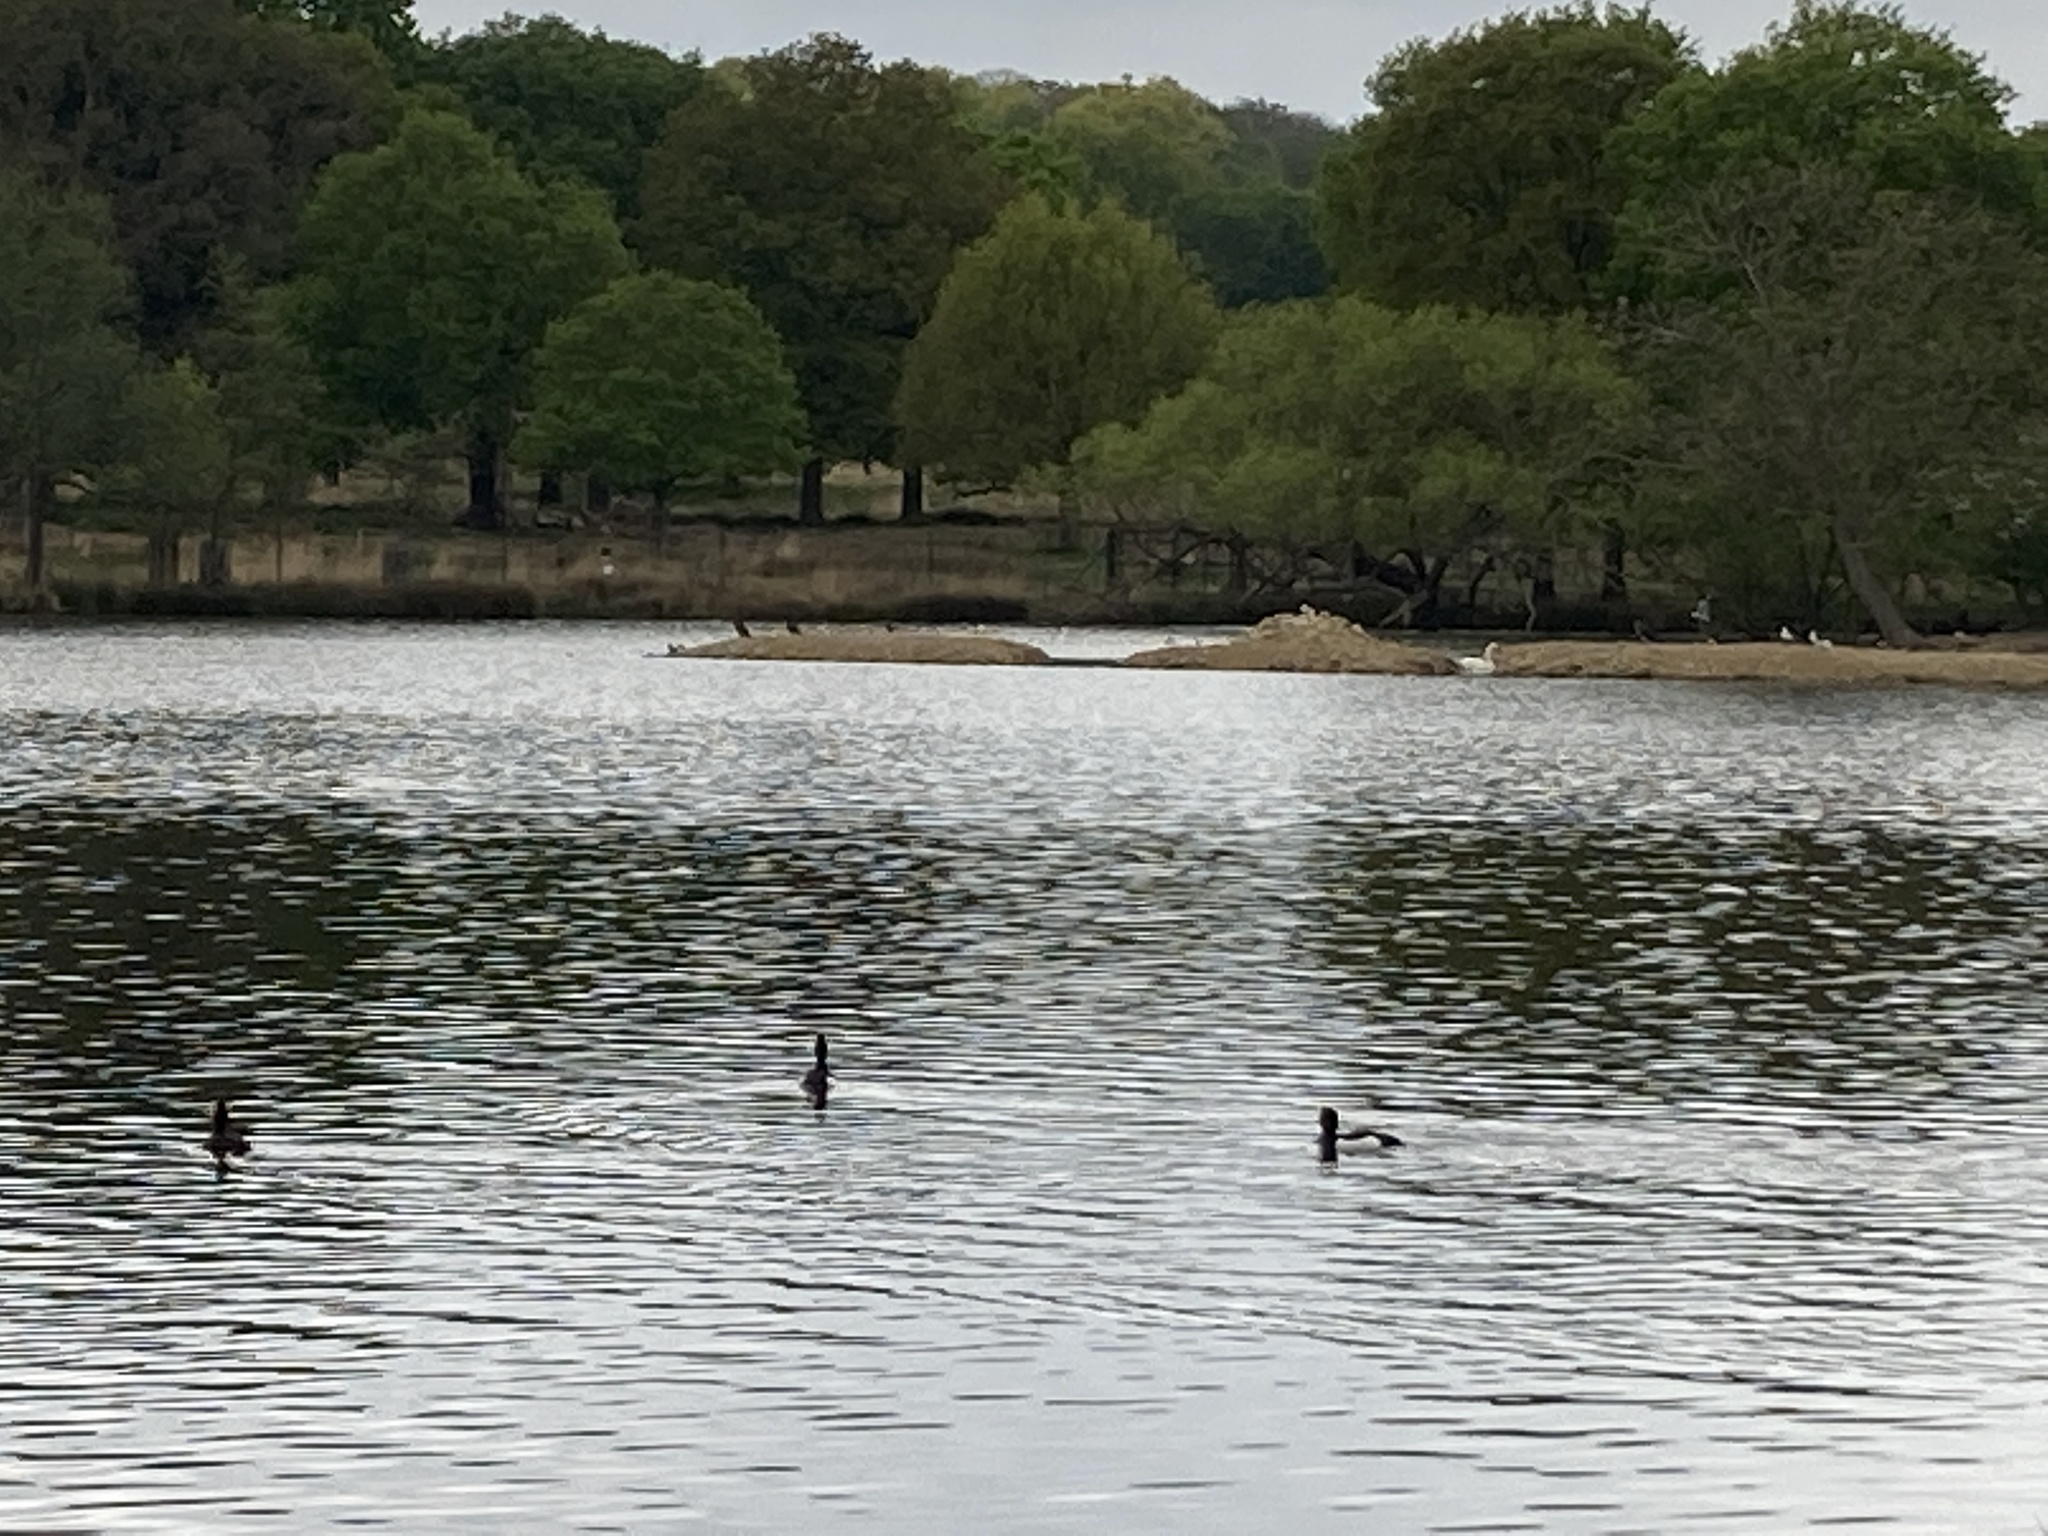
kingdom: Animalia
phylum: Chordata
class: Aves
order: Anseriformes
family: Anatidae
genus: Aythya
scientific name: Aythya fuligula
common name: Tufted duck
